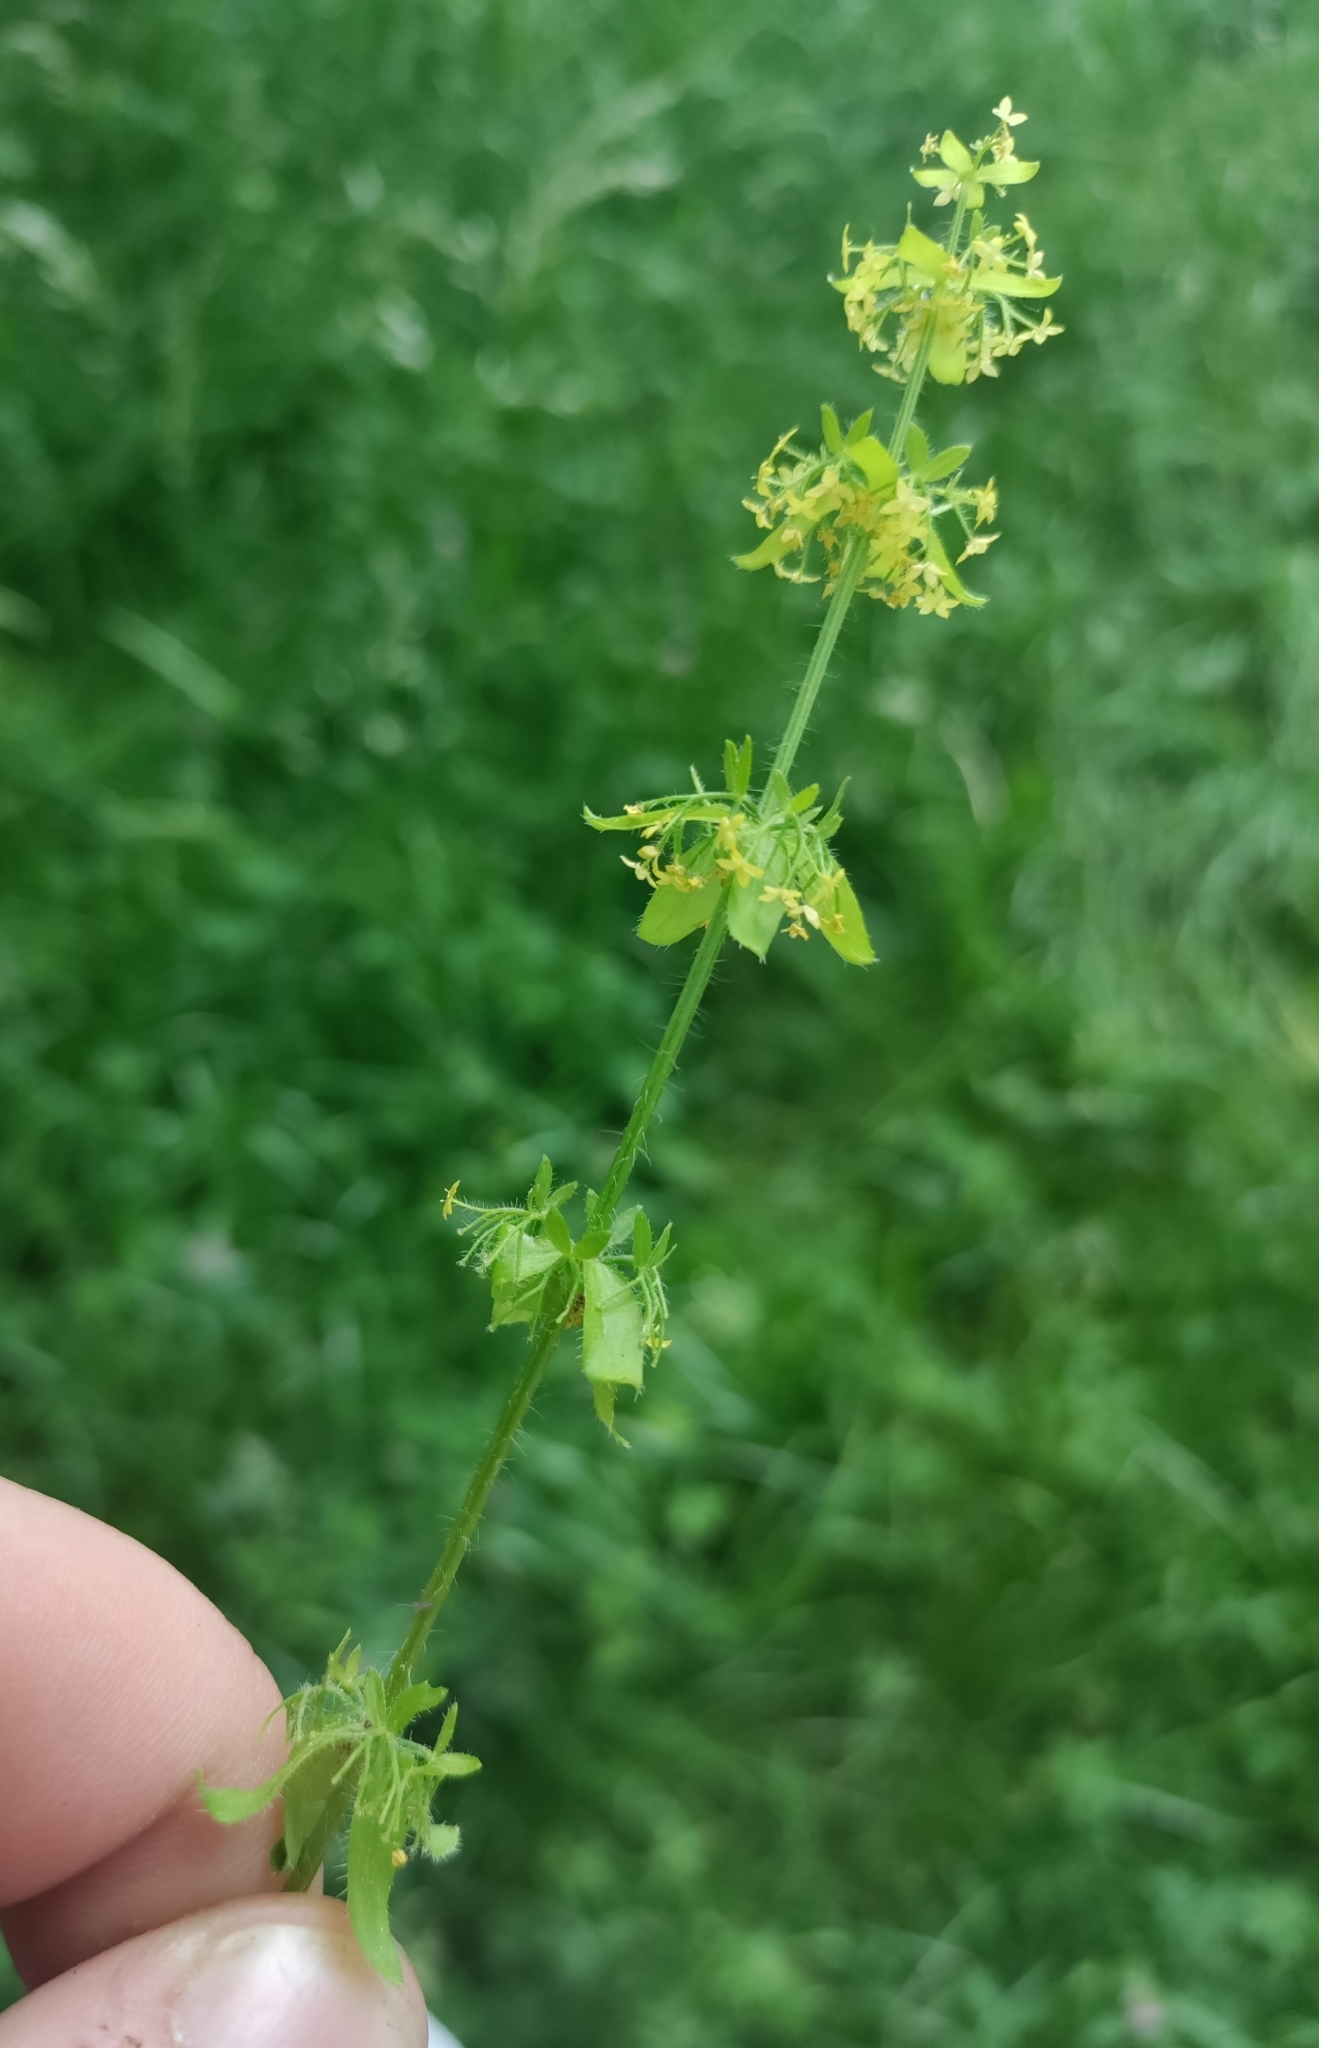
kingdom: Plantae
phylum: Tracheophyta
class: Magnoliopsida
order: Gentianales
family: Rubiaceae
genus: Cruciata
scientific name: Cruciata laevipes
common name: Crosswort
